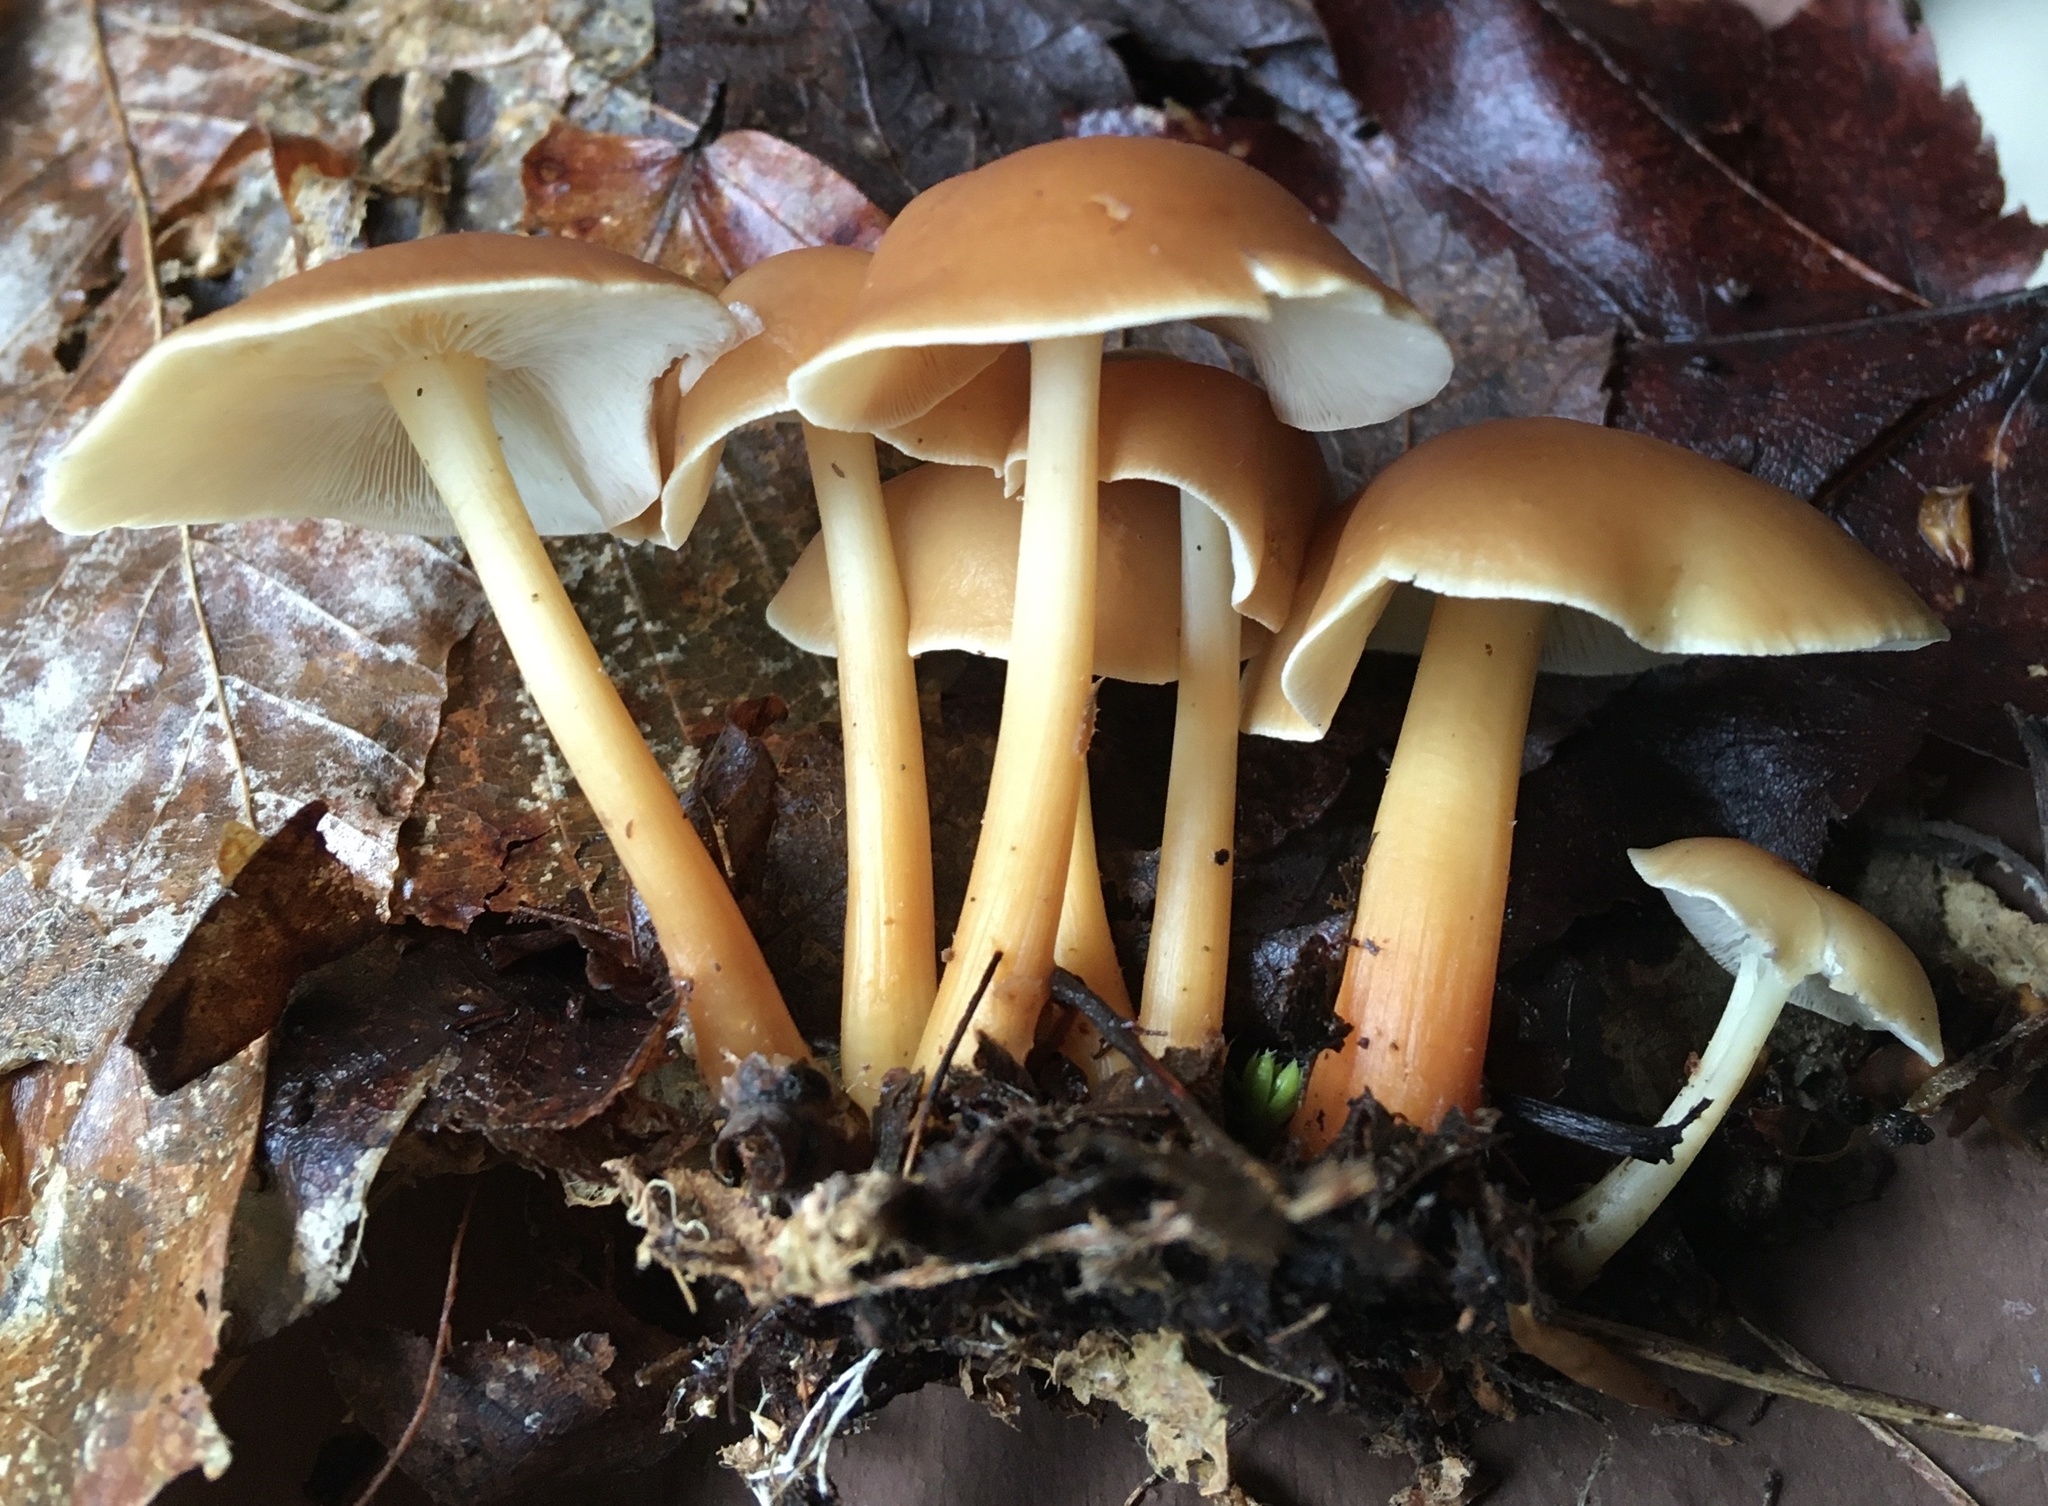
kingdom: Fungi
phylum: Basidiomycota
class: Agaricomycetes
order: Agaricales
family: Omphalotaceae
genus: Gymnopus
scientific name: Gymnopus dryophilus
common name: Penny top
